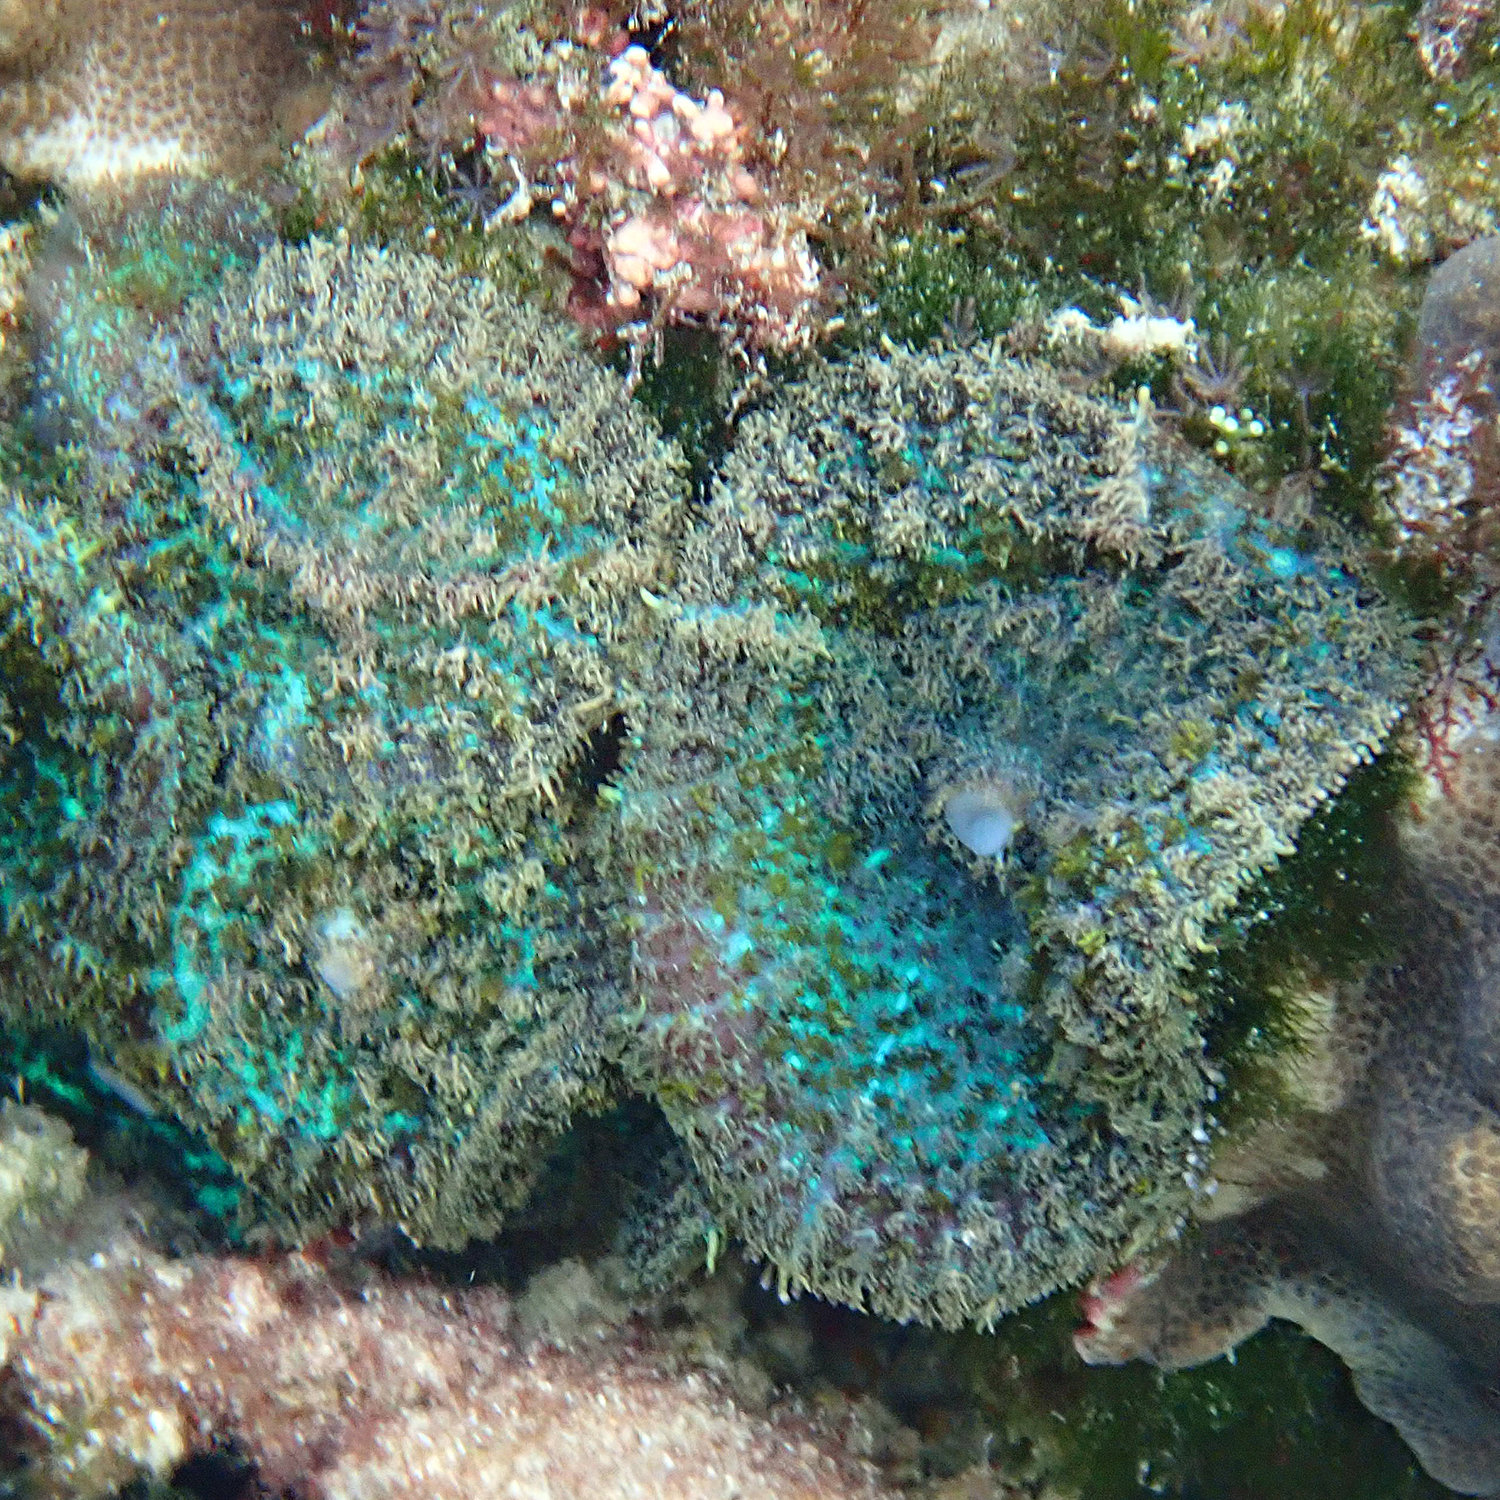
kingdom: Animalia
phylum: Cnidaria
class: Anthozoa
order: Corallimorpharia
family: Discosomidae
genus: Rhodactis
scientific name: Rhodactis bryoides
